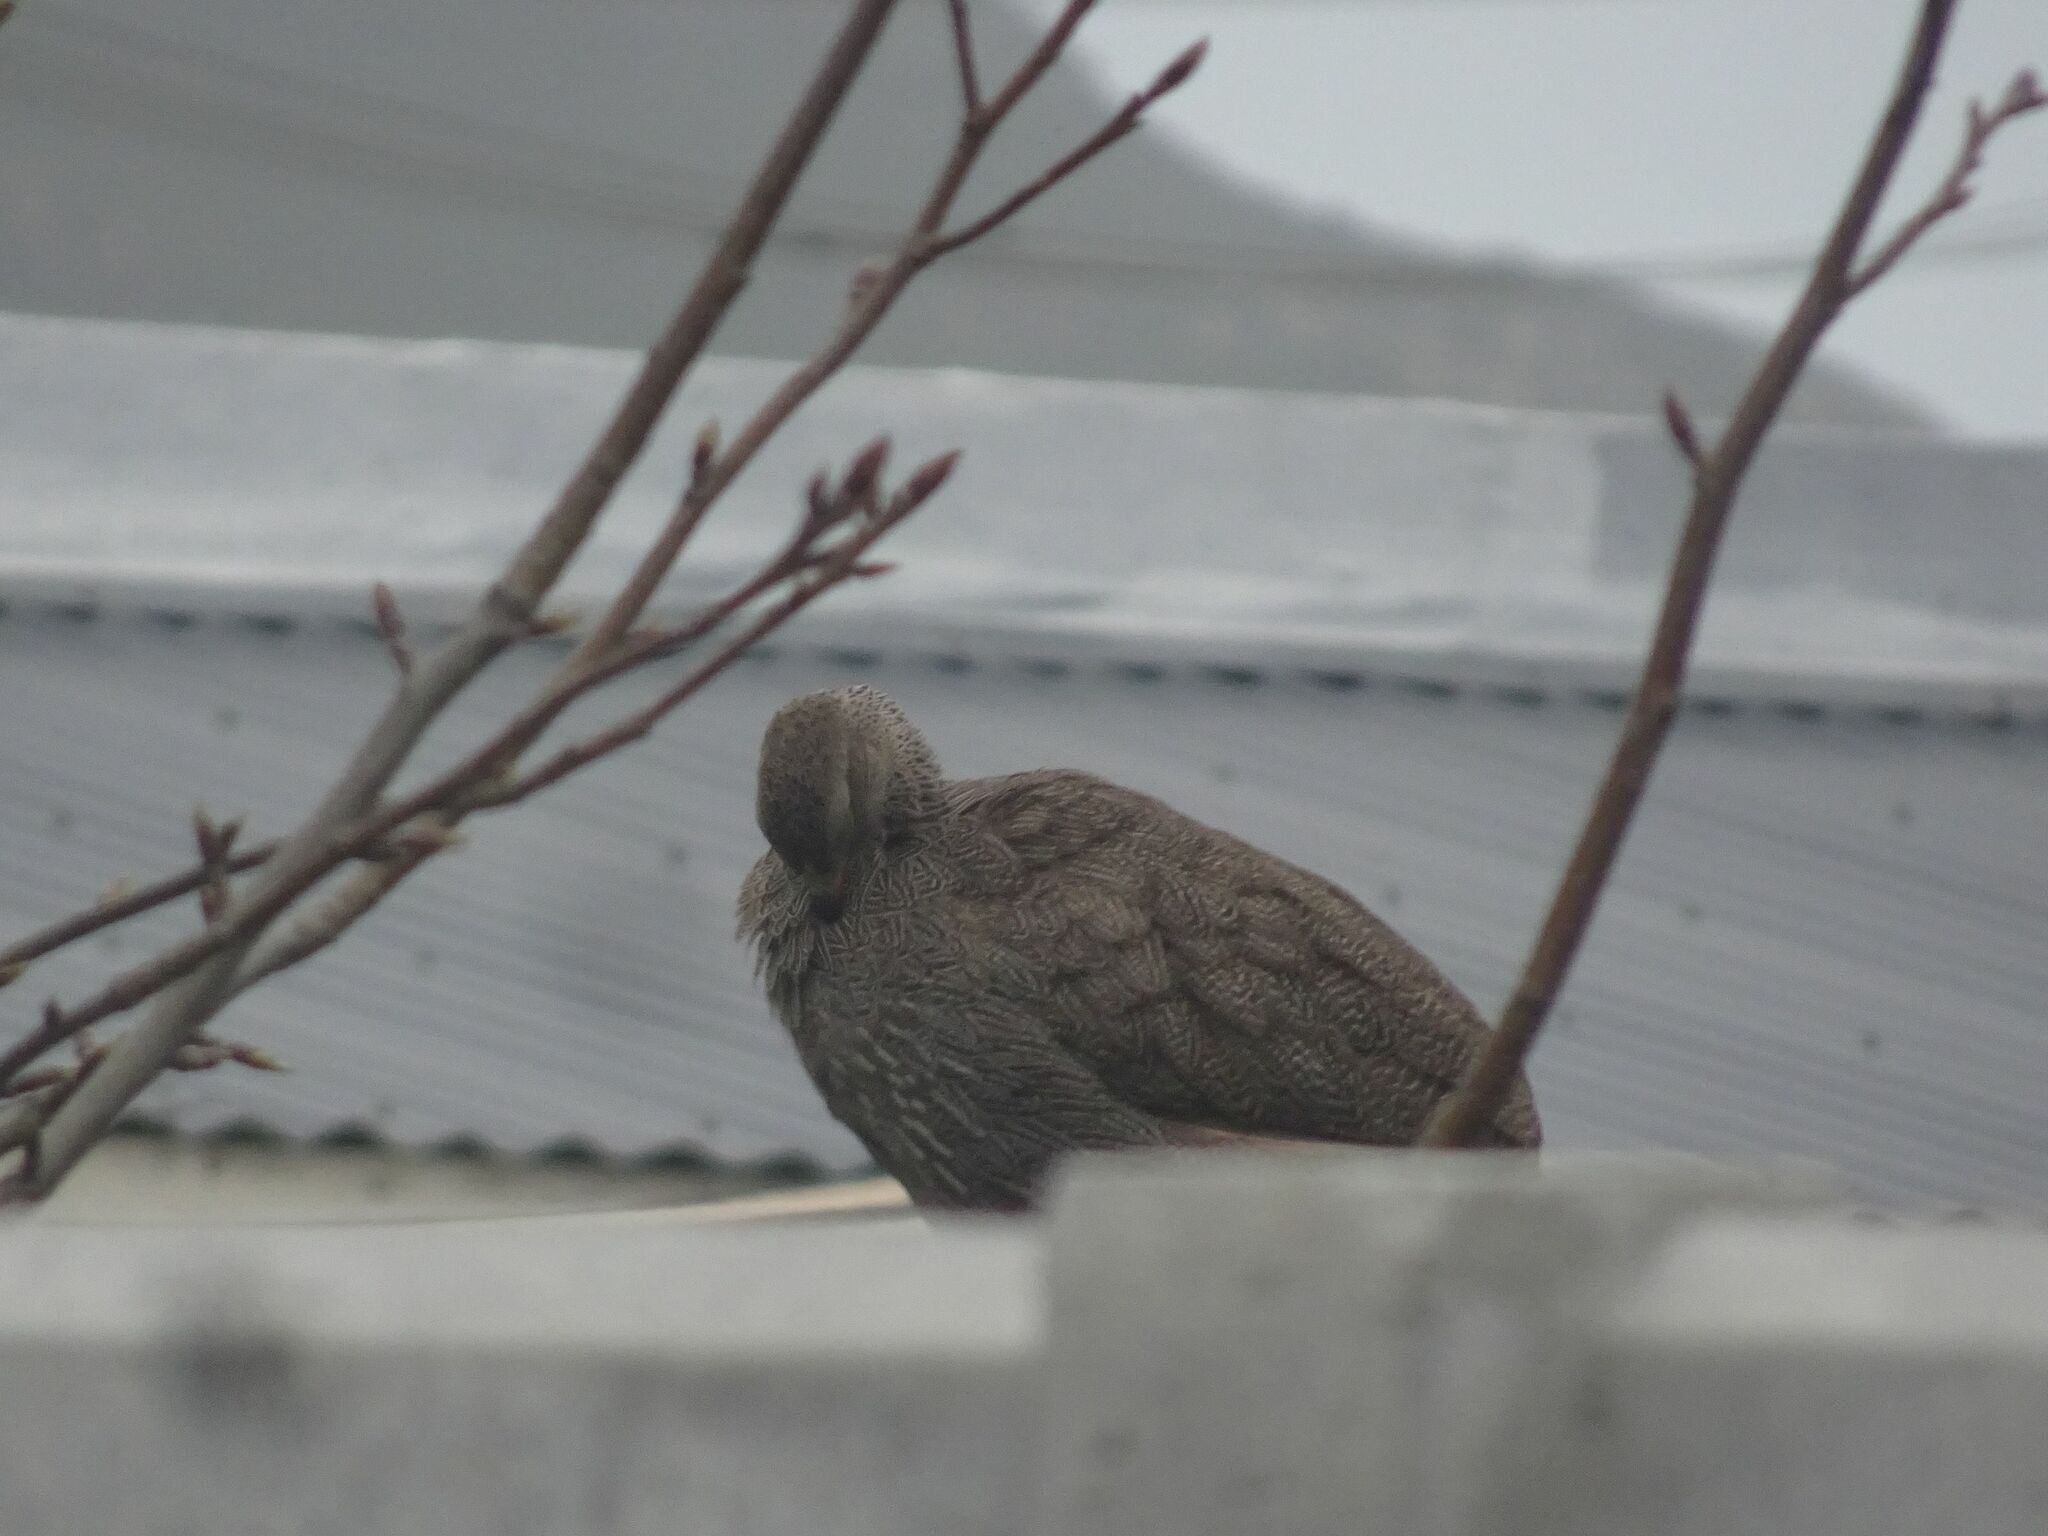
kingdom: Animalia
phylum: Chordata
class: Aves
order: Galliformes
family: Phasianidae
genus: Pternistis
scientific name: Pternistis capensis
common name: Cape spurfowl
